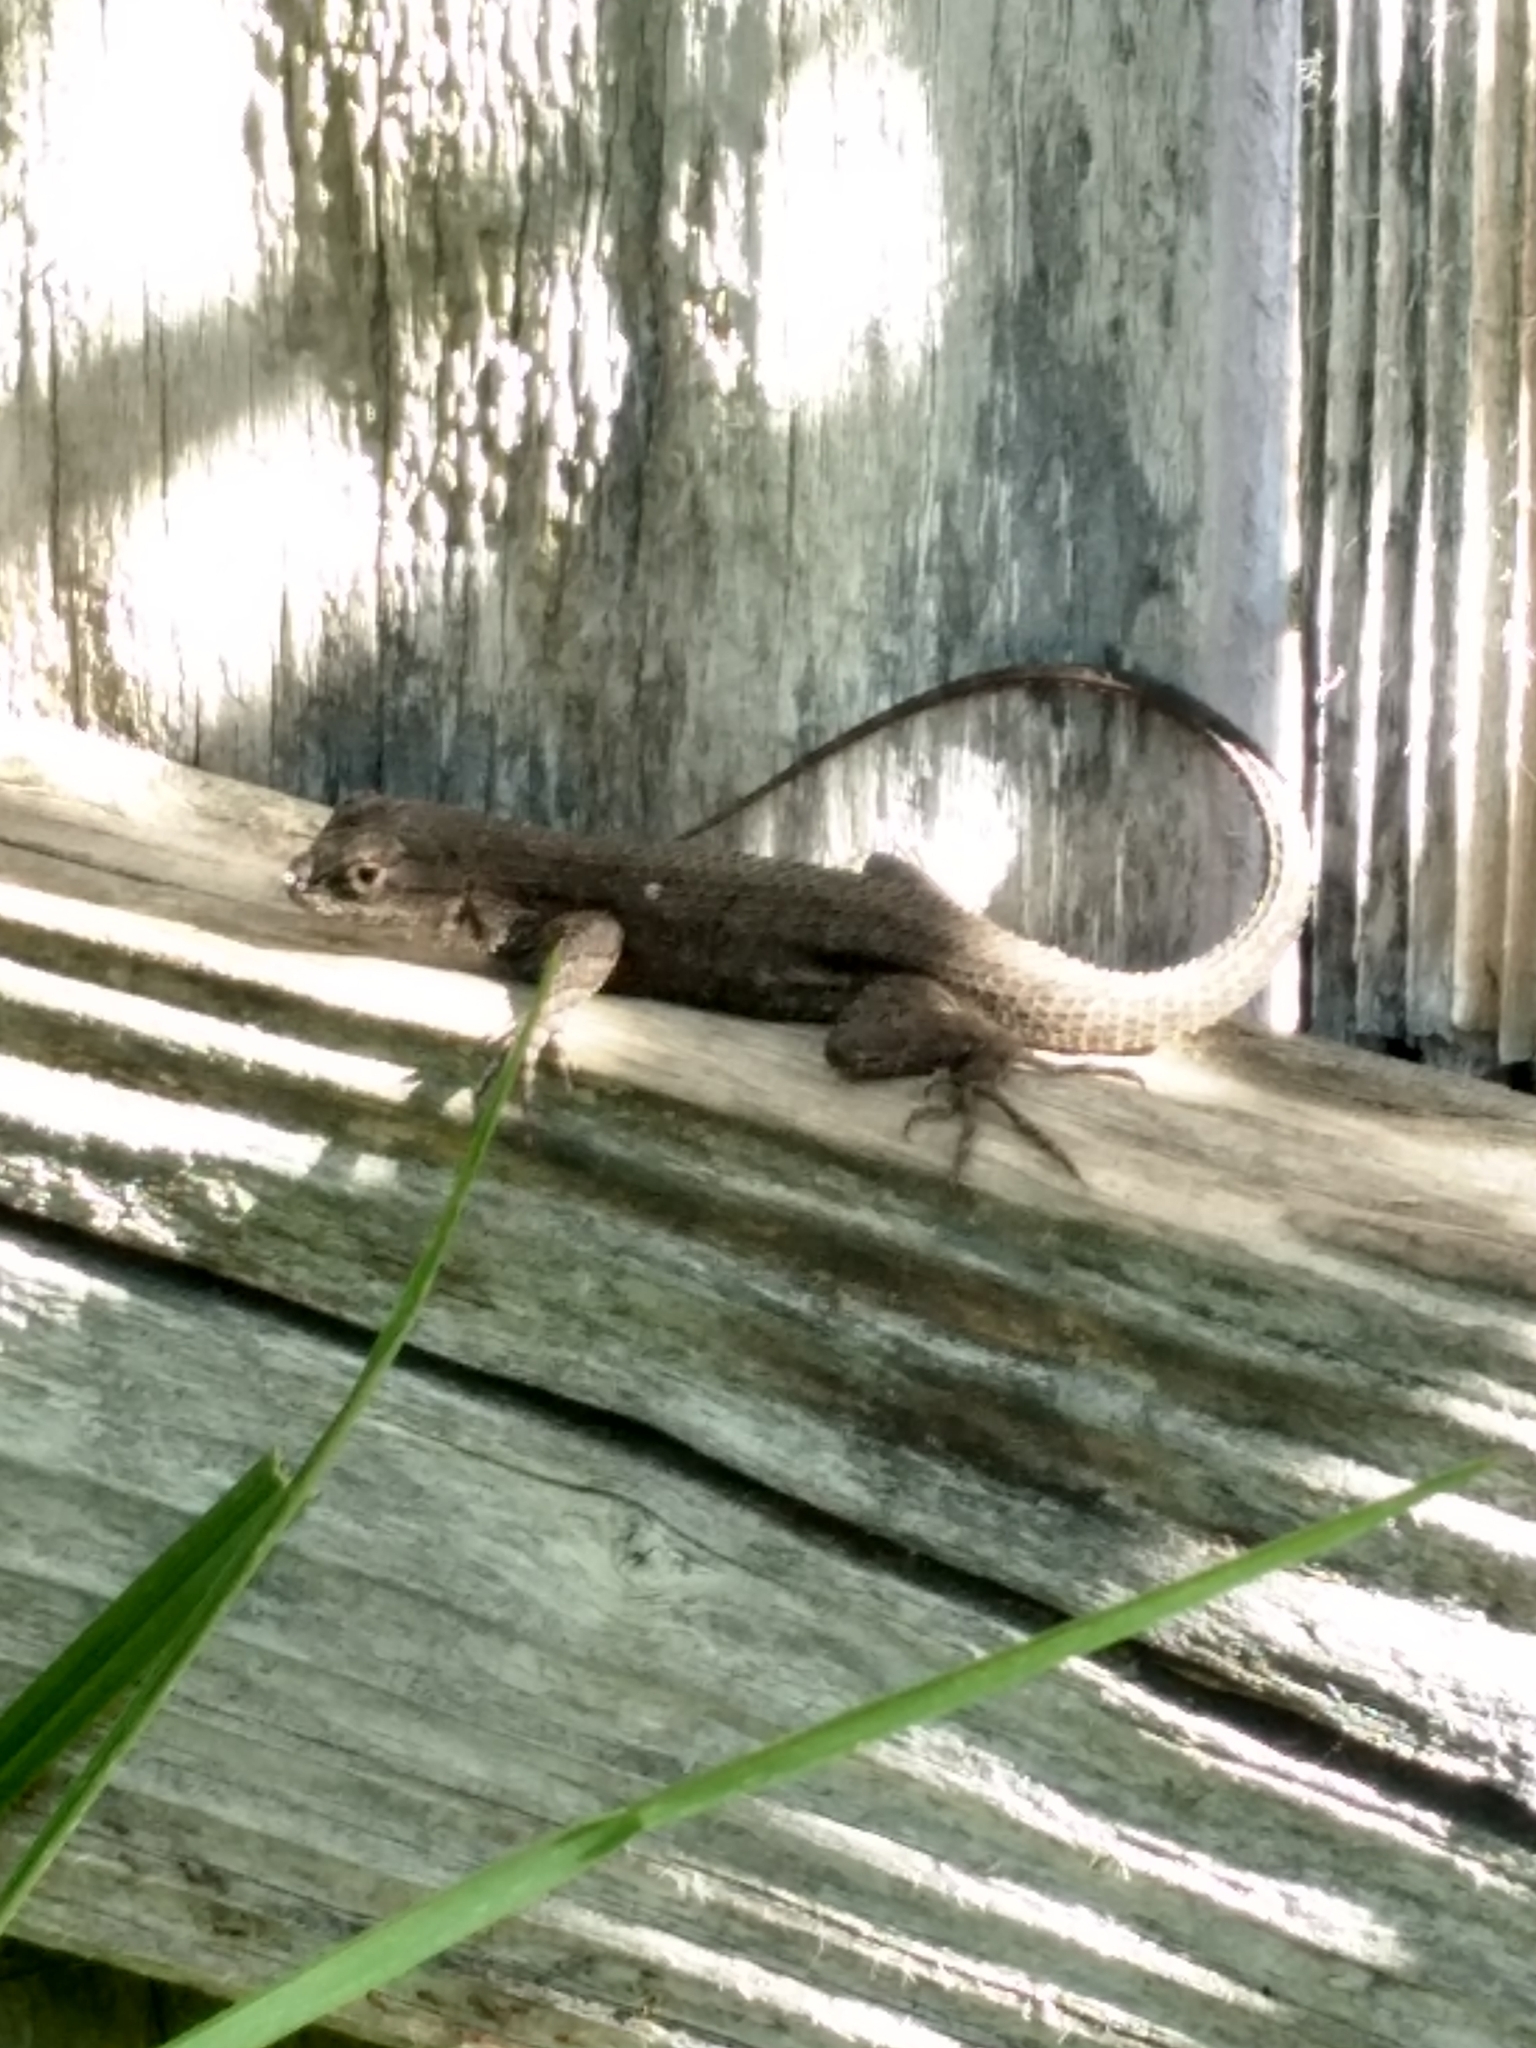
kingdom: Animalia
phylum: Chordata
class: Squamata
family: Phrynosomatidae
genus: Sceloporus
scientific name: Sceloporus occidentalis
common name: Western fence lizard
